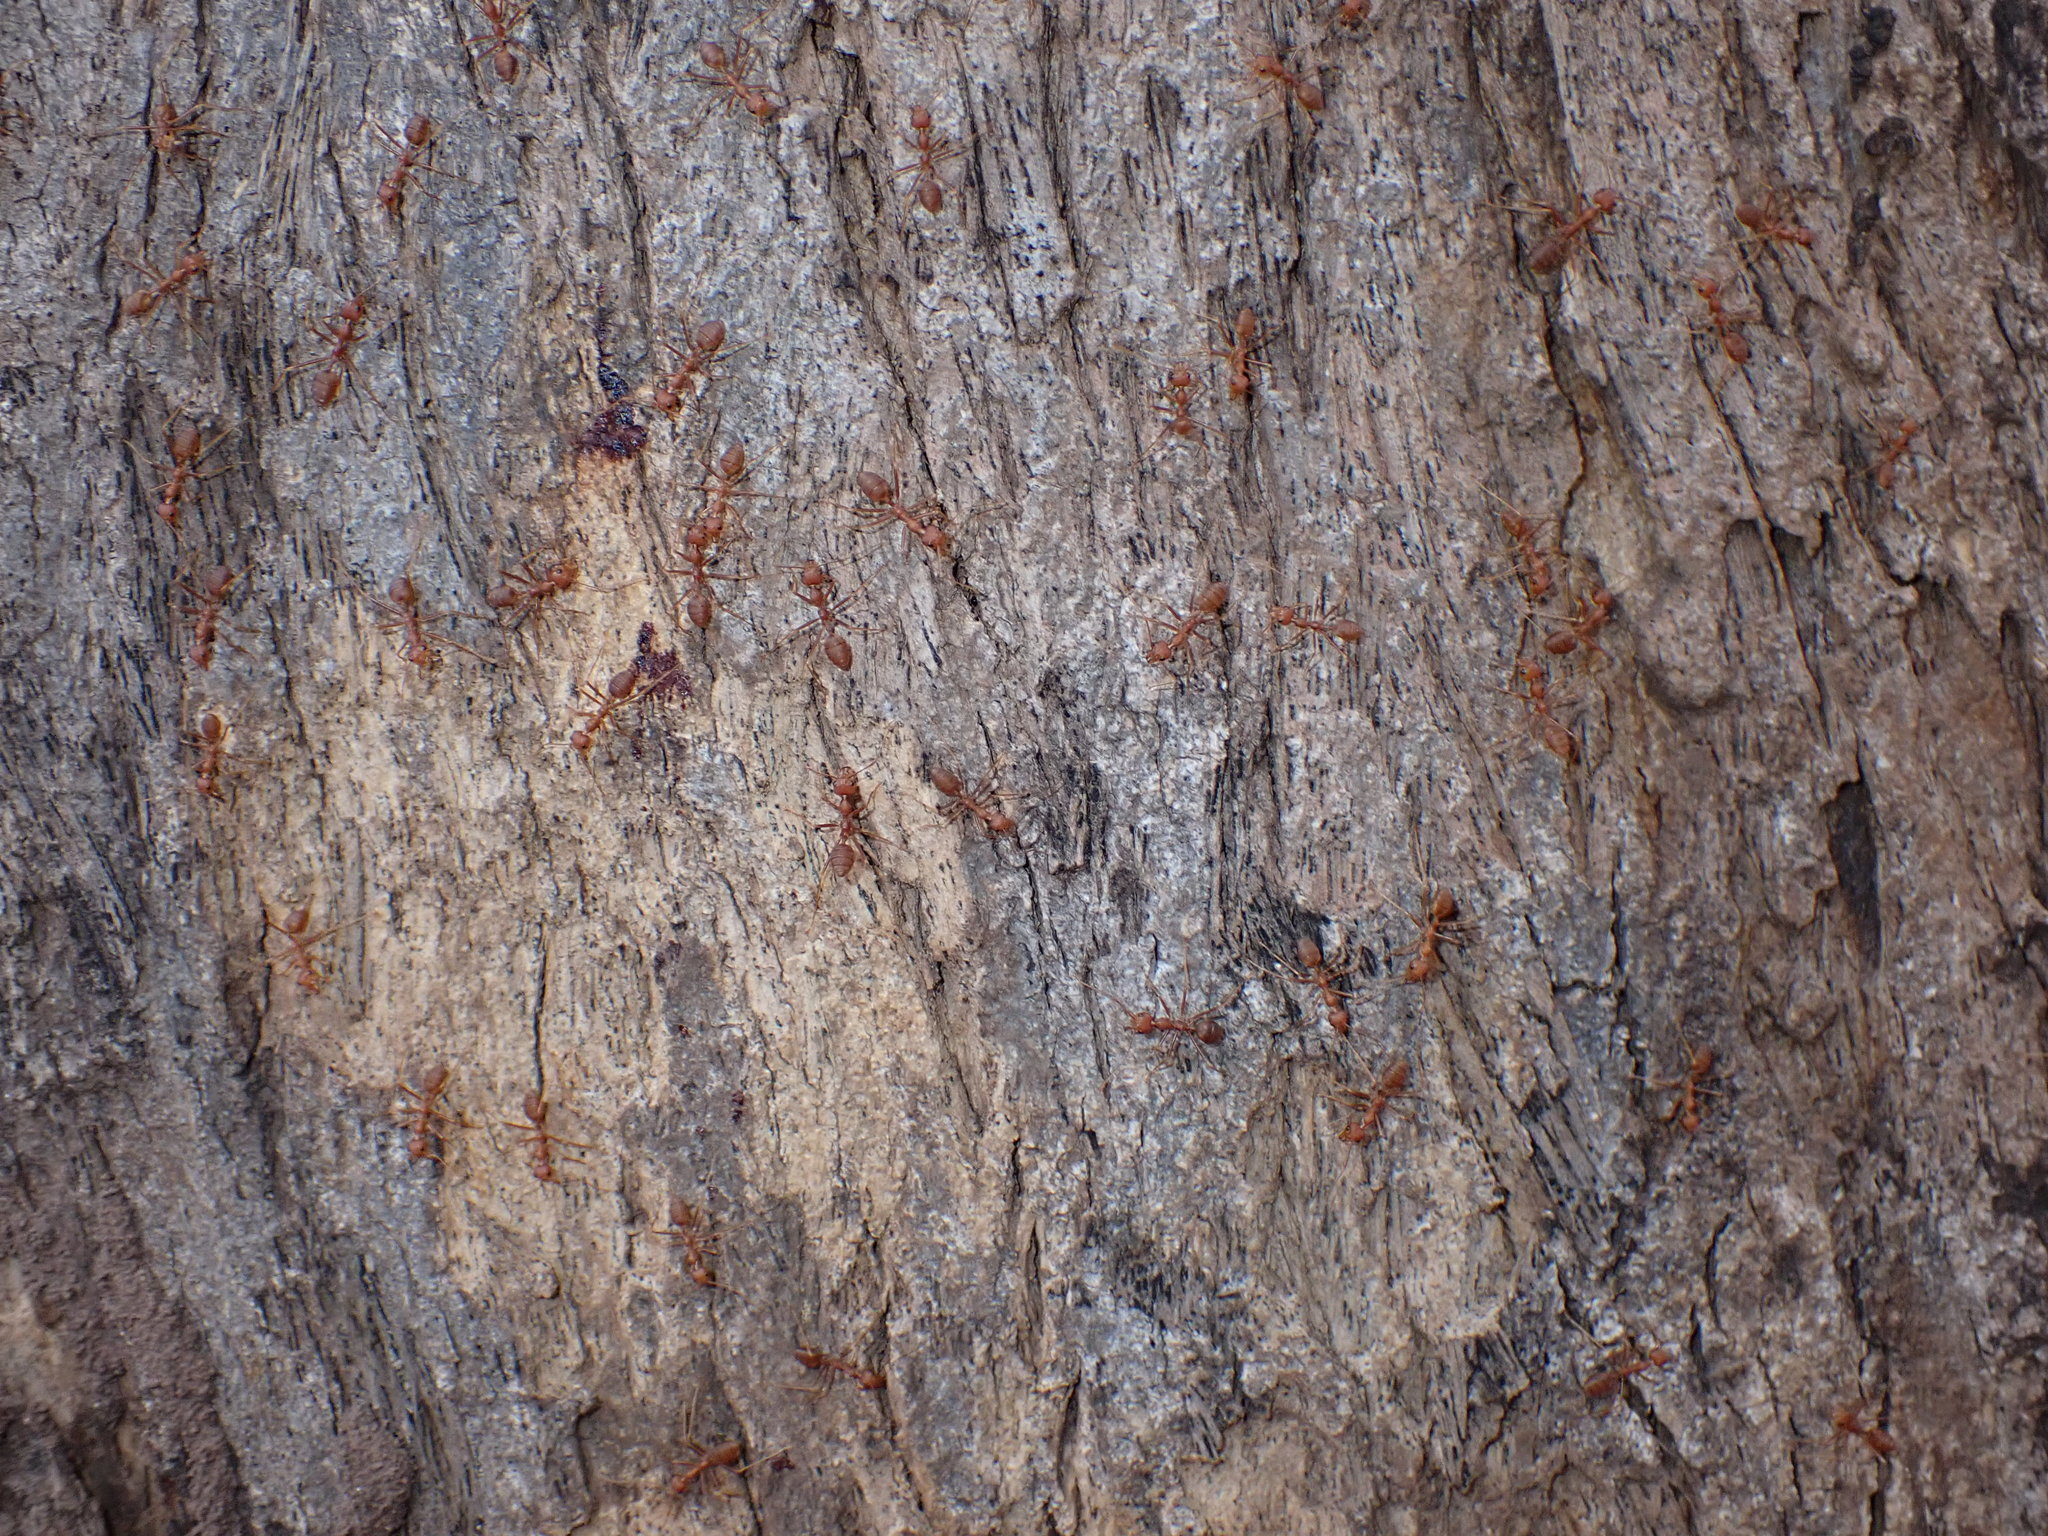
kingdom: Animalia
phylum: Arthropoda
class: Insecta
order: Hymenoptera
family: Formicidae
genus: Oecophylla
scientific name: Oecophylla smaragdina
